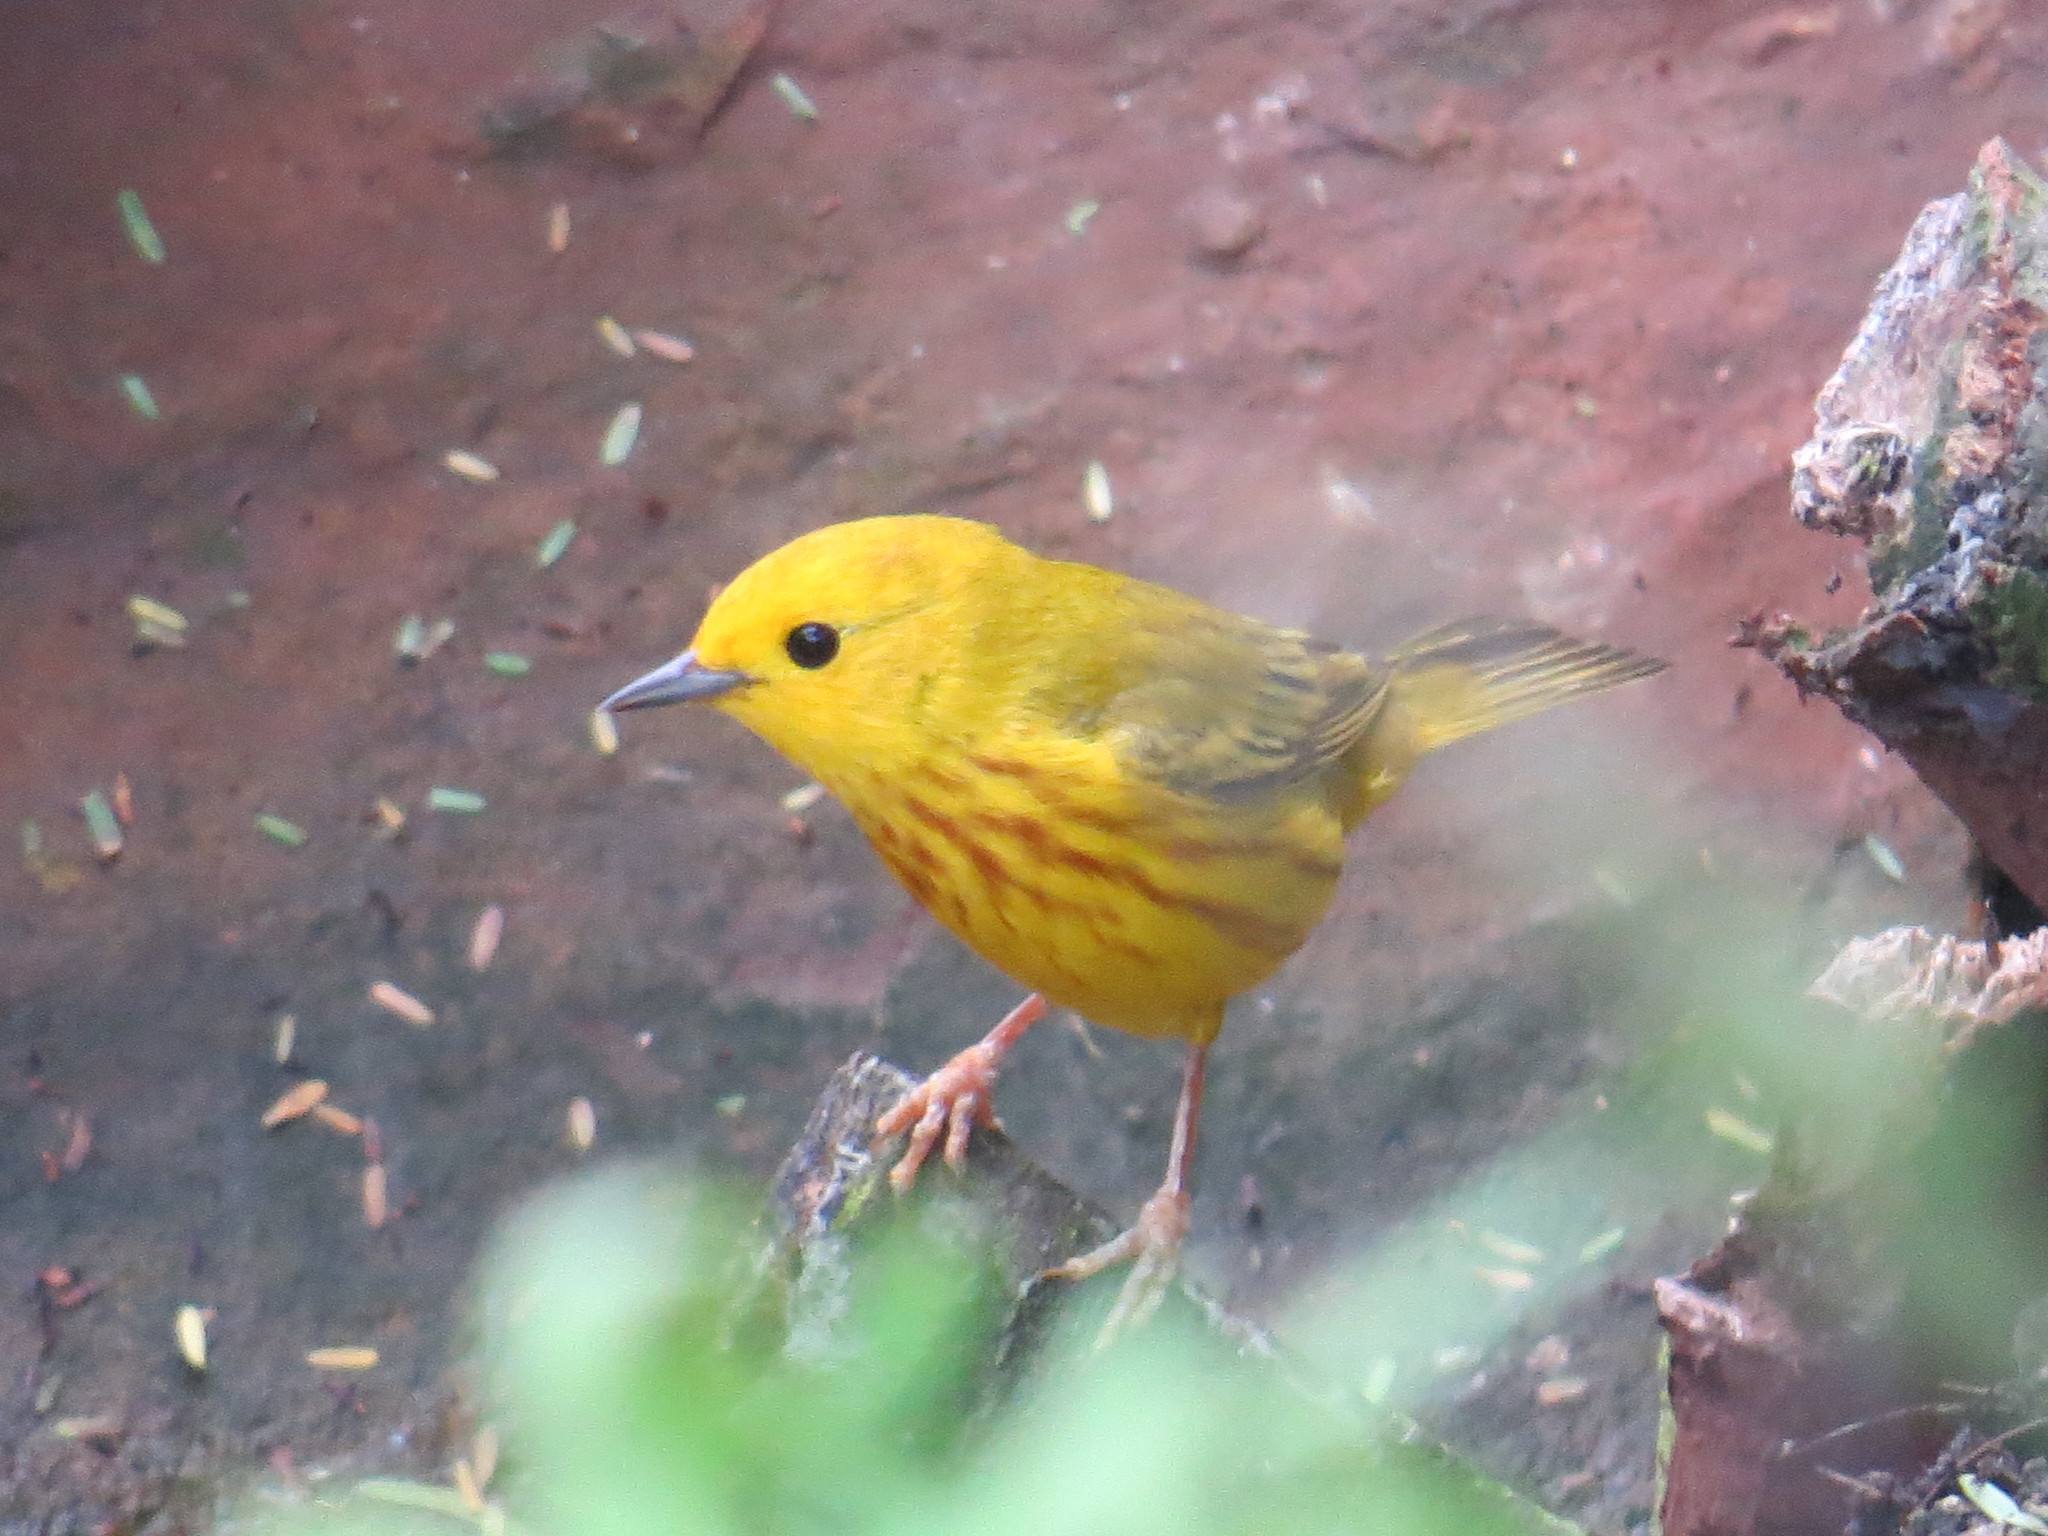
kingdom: Animalia
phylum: Chordata
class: Aves
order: Passeriformes
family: Parulidae
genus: Setophaga
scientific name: Setophaga petechia
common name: Yellow warbler
